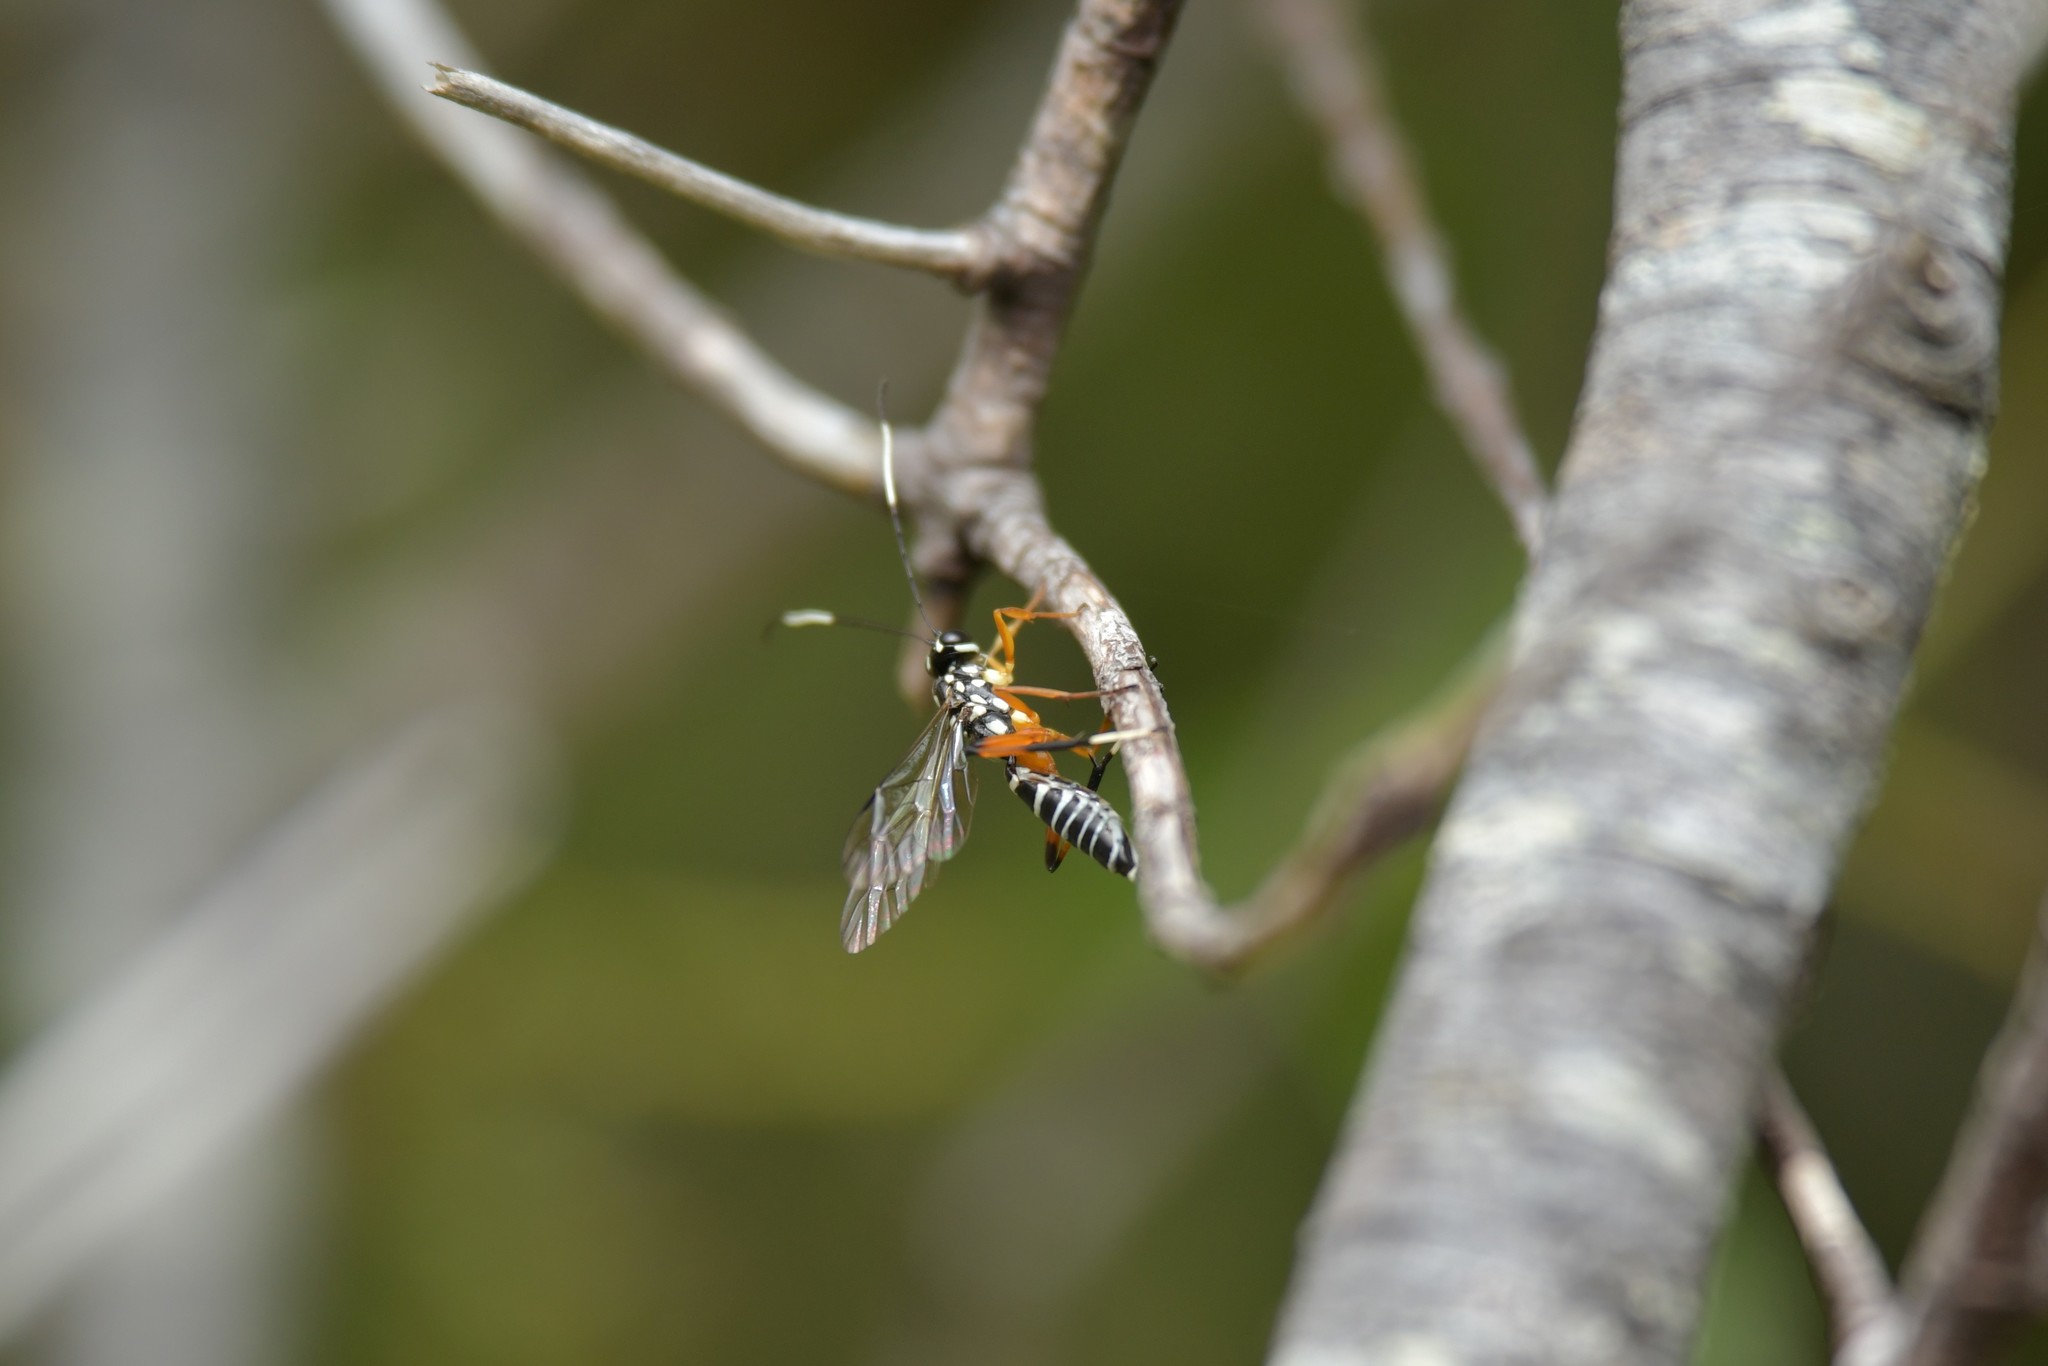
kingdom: Animalia
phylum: Arthropoda
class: Insecta
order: Hymenoptera
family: Ichneumonidae
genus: Xanthocryptus
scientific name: Xanthocryptus novozealandicus
